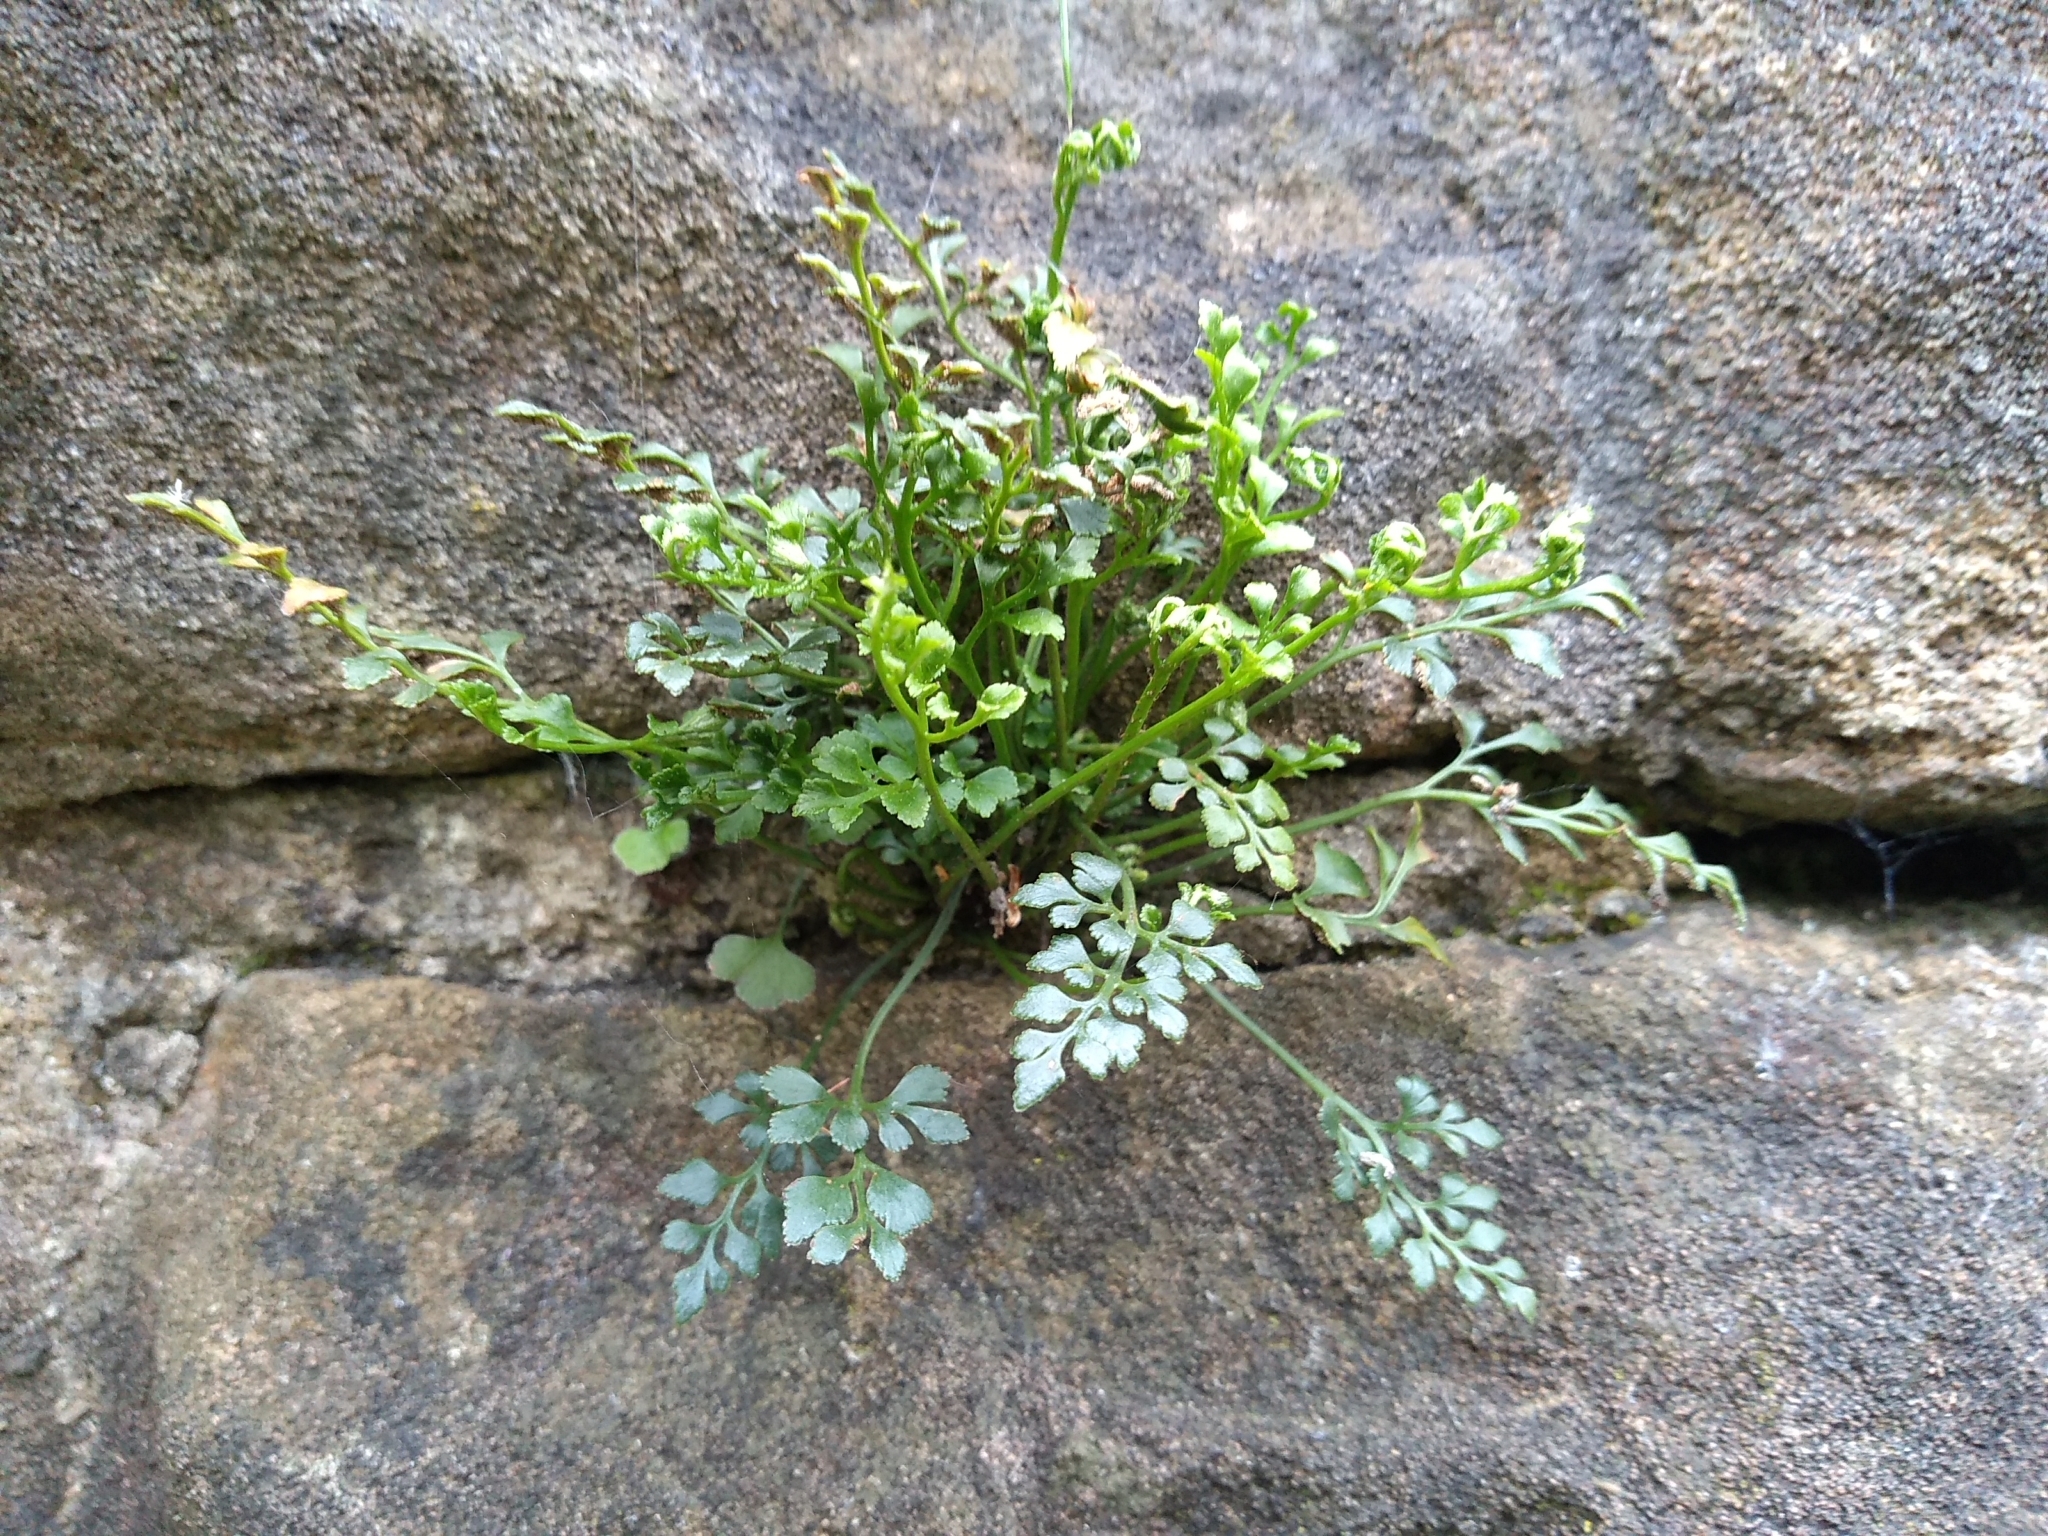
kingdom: Plantae
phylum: Tracheophyta
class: Polypodiopsida
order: Polypodiales
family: Aspleniaceae
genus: Asplenium
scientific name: Asplenium ruta-muraria
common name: Wall-rue
